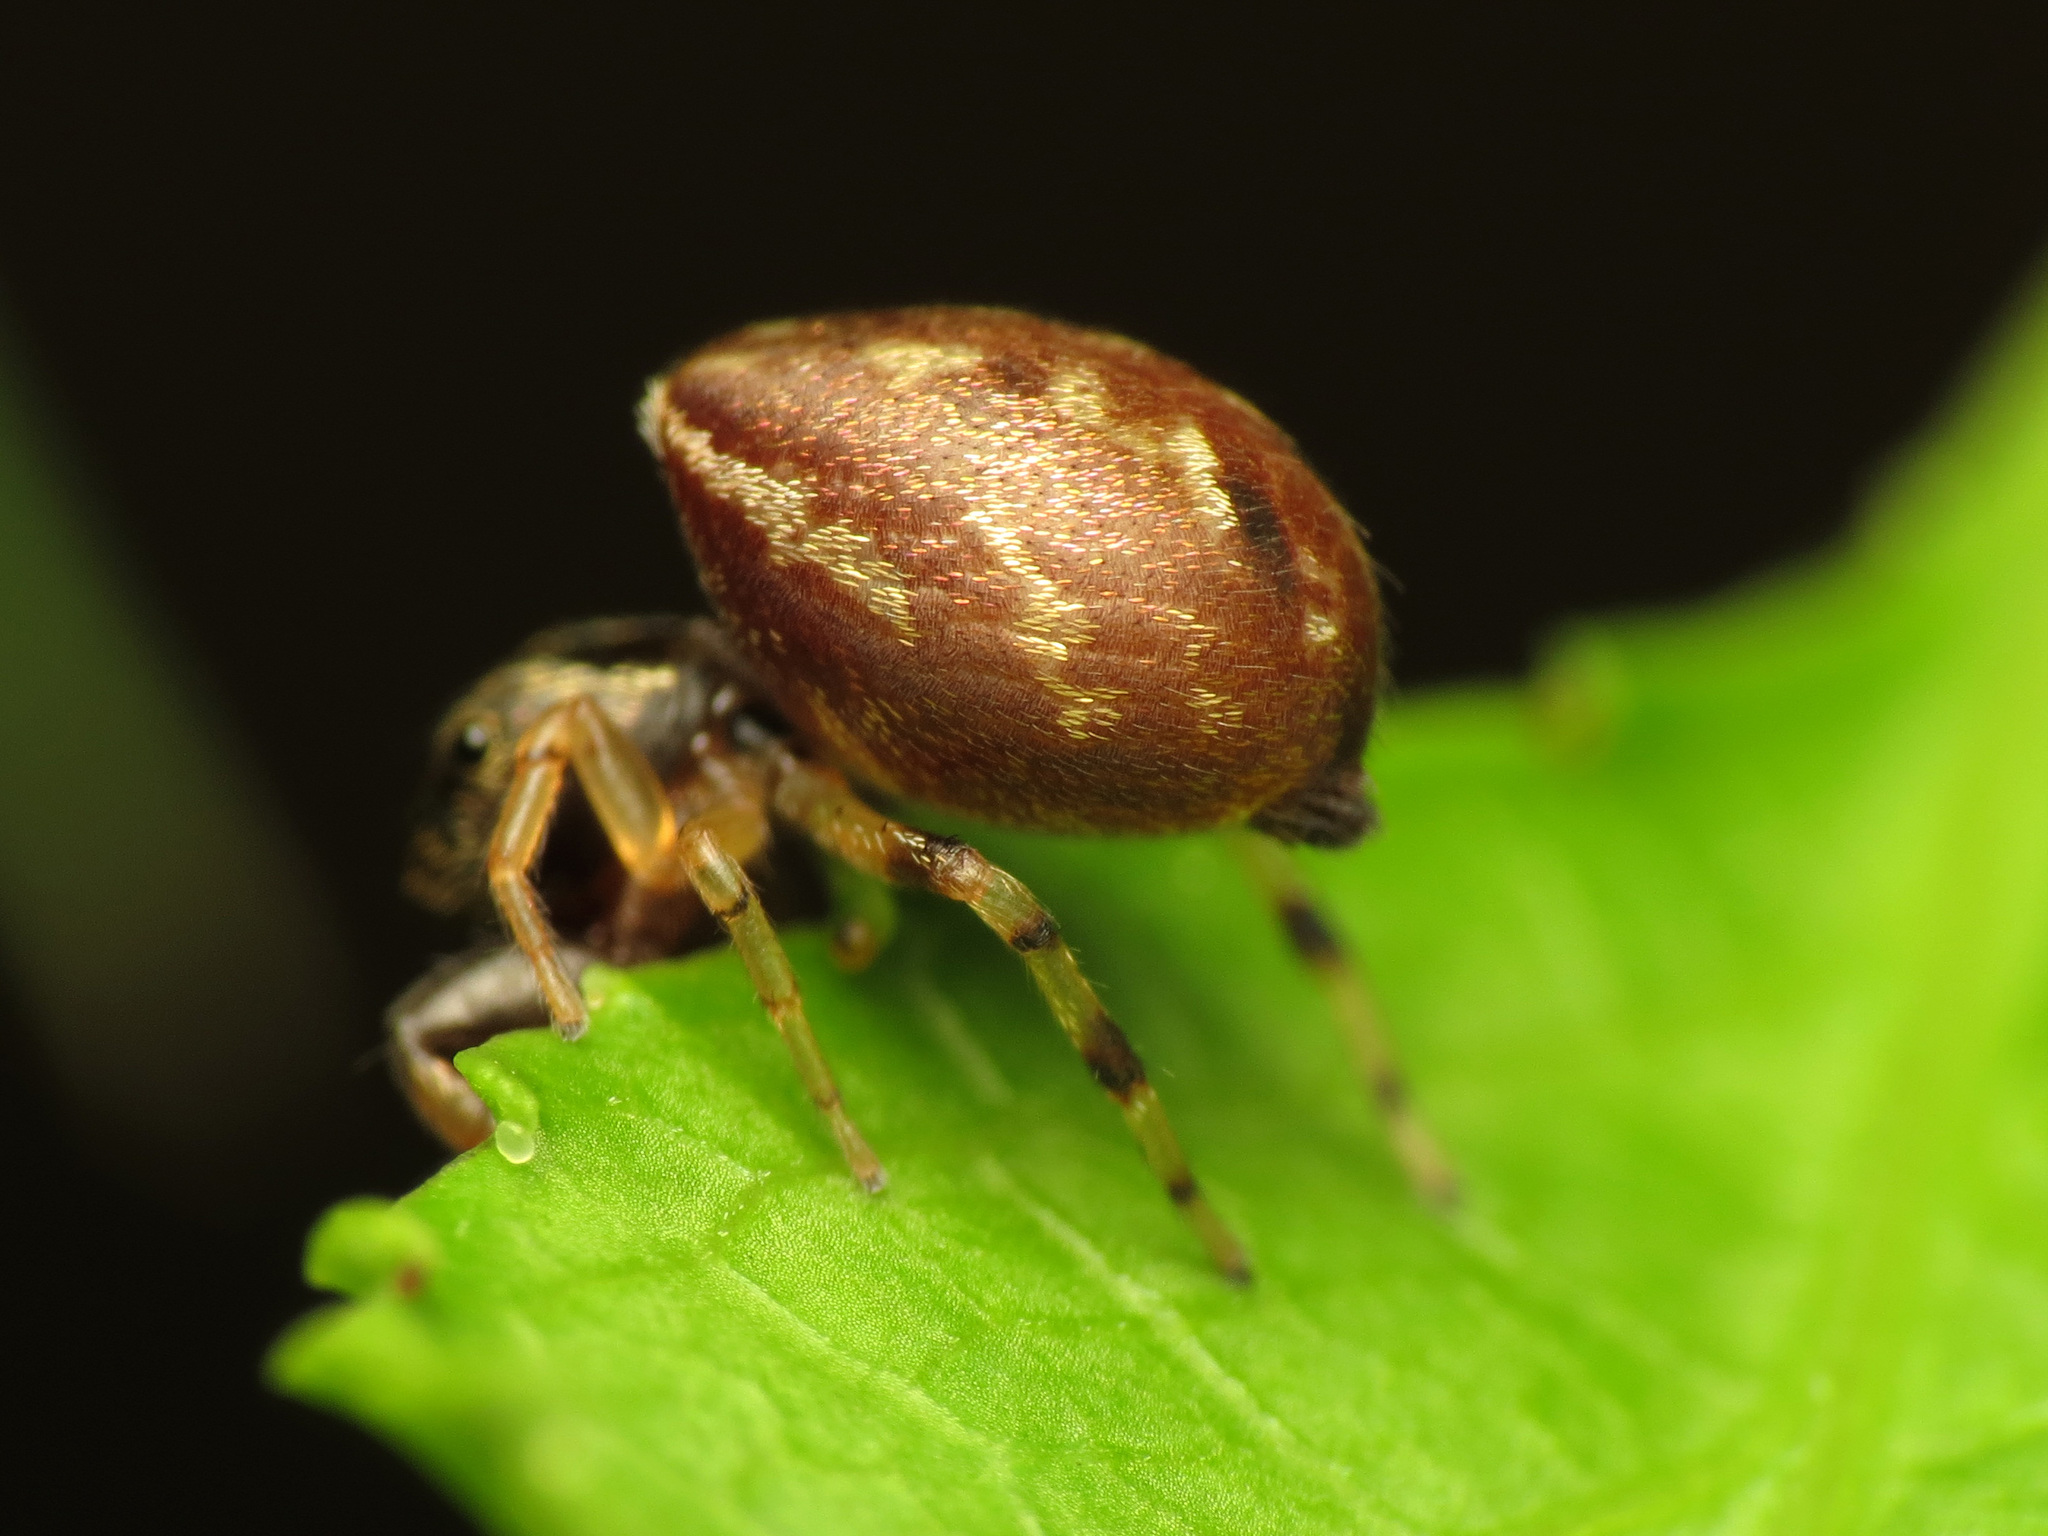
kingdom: Animalia
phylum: Arthropoda
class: Arachnida
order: Araneae
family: Salticidae
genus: Zygoballus
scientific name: Zygoballus rufipes
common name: Jumping spiders
